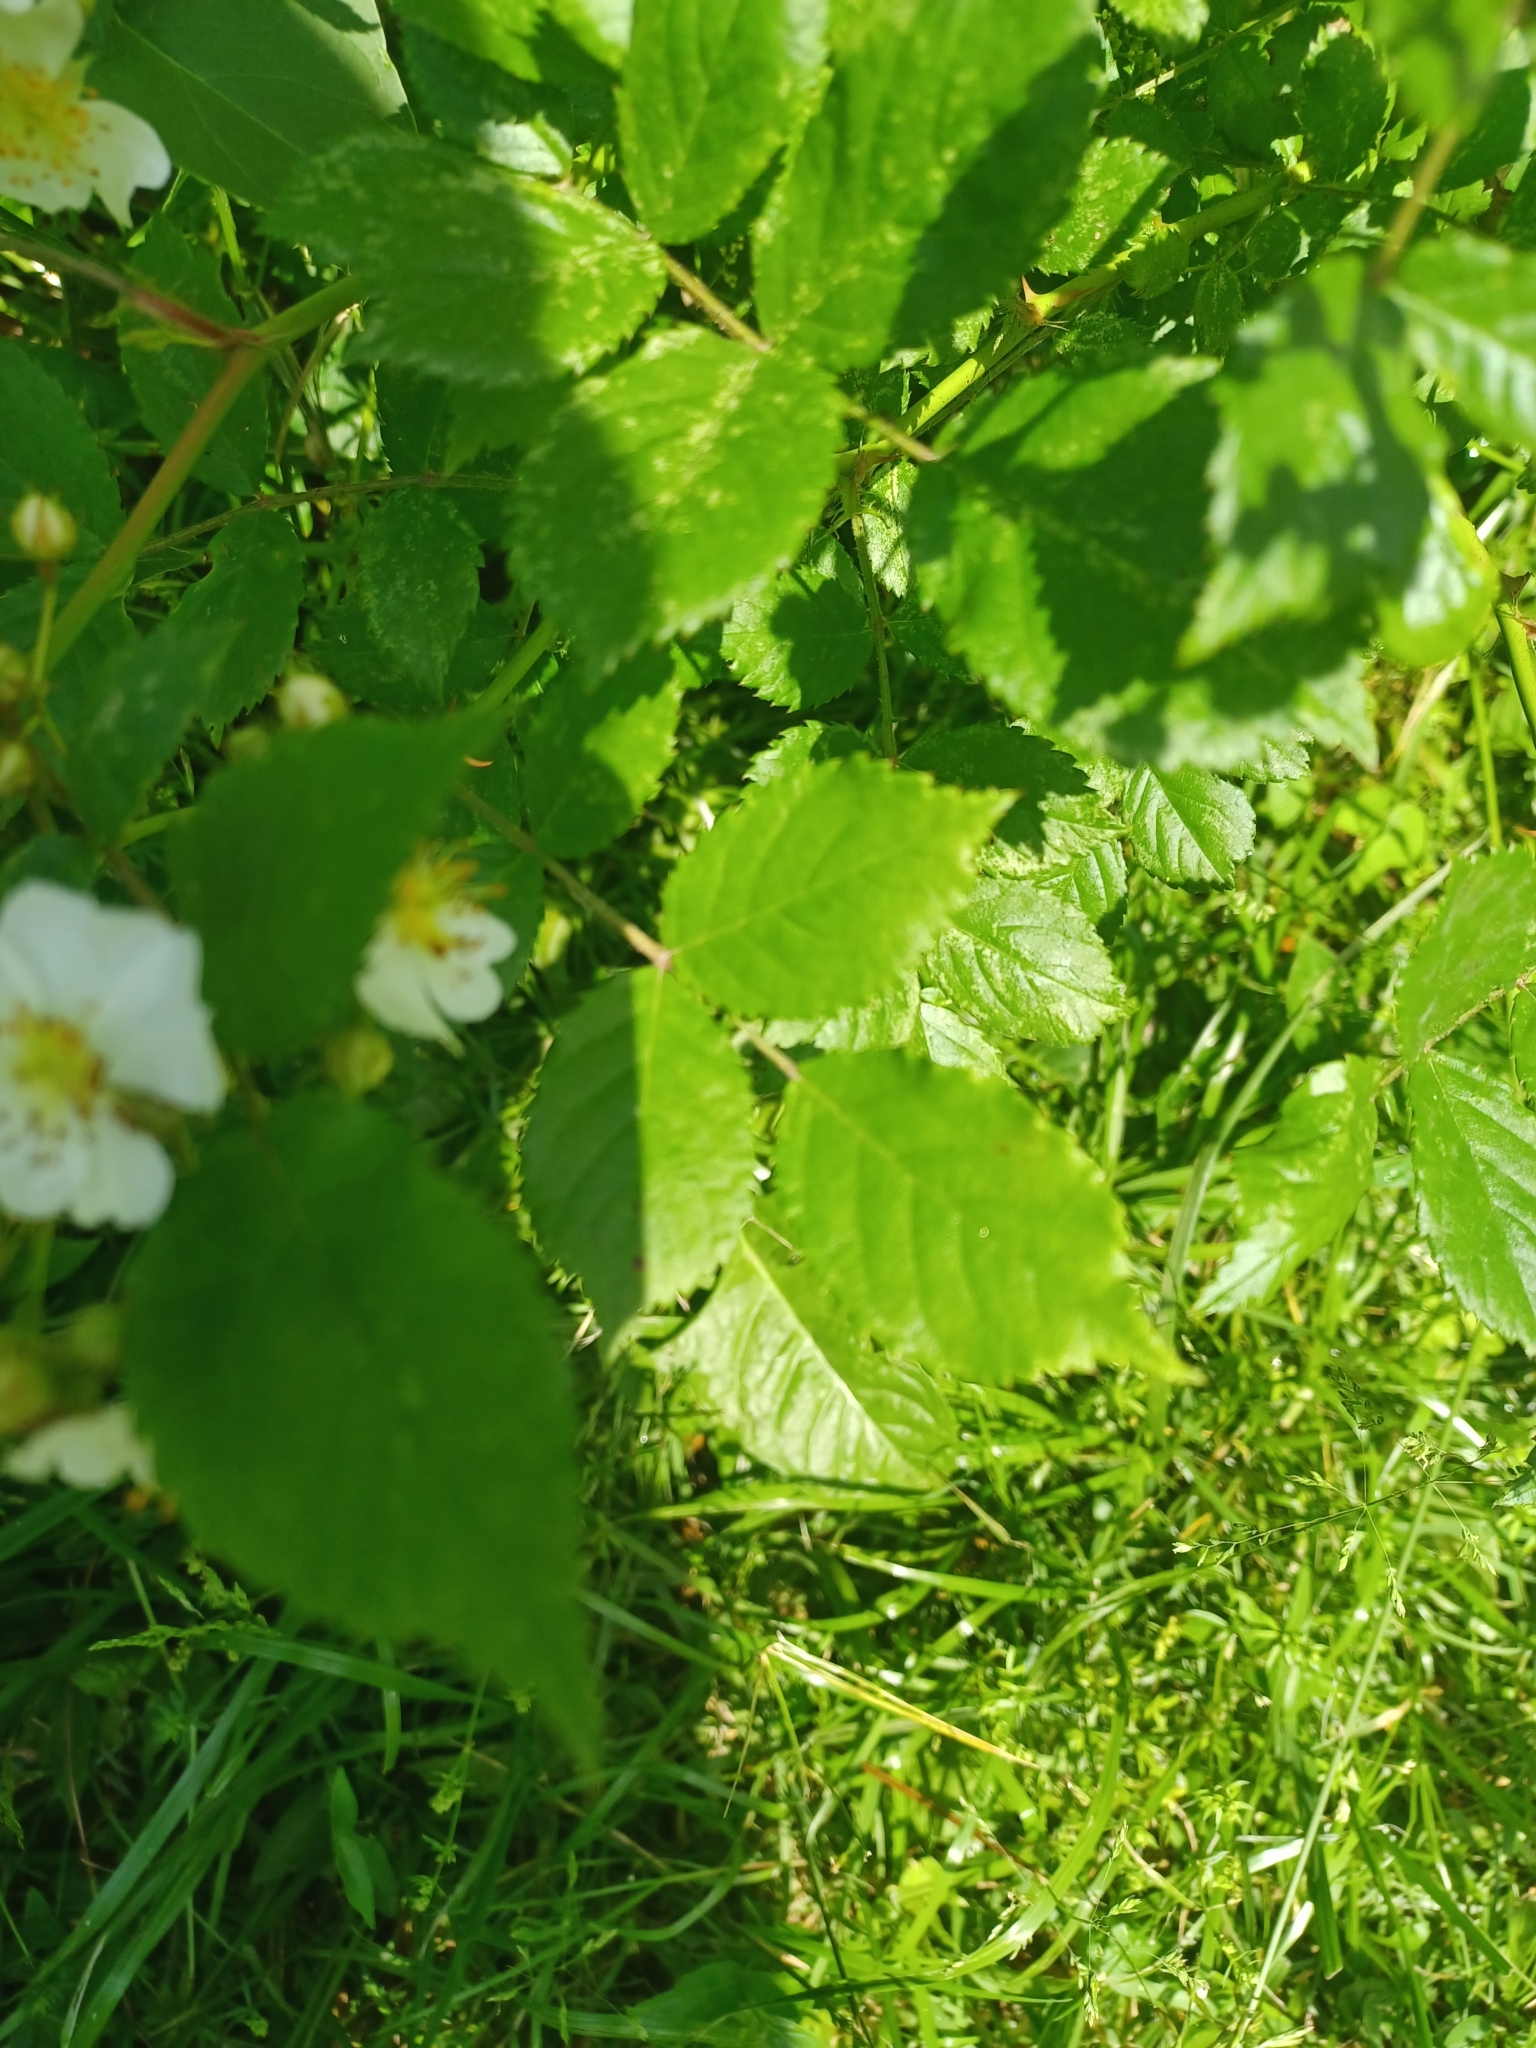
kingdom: Plantae
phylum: Tracheophyta
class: Magnoliopsida
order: Rosales
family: Rosaceae
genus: Rosa
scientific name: Rosa multiflora
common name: Multiflora rose
